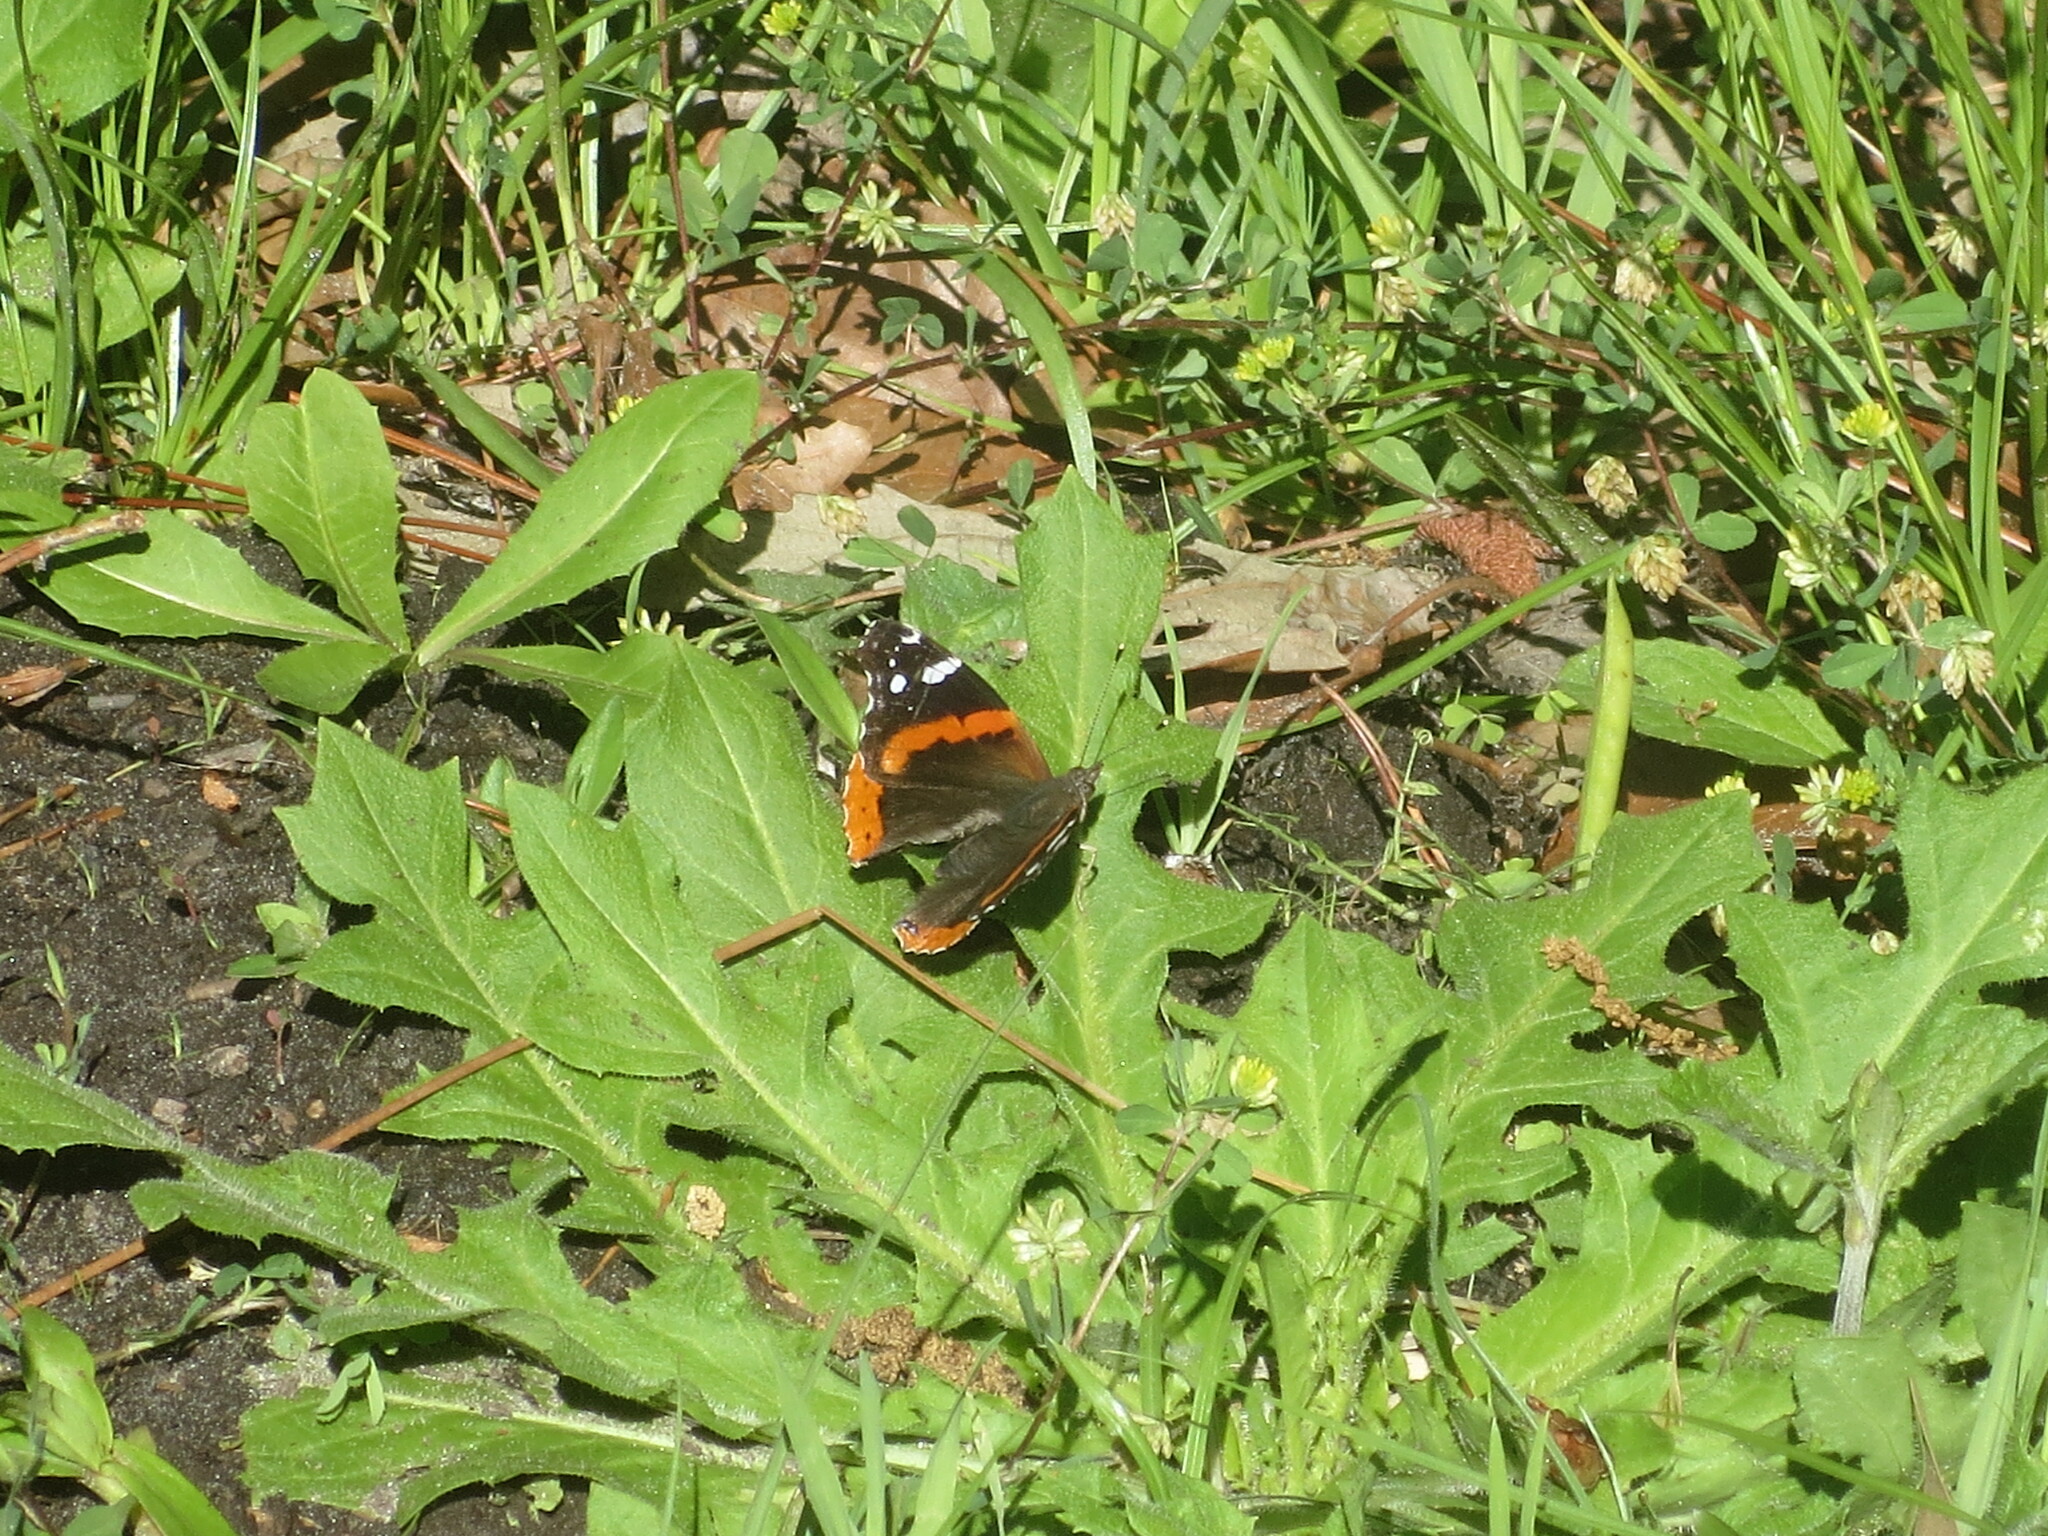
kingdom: Animalia
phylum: Arthropoda
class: Insecta
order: Lepidoptera
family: Nymphalidae
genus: Vanessa
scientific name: Vanessa atalanta
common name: Red admiral
